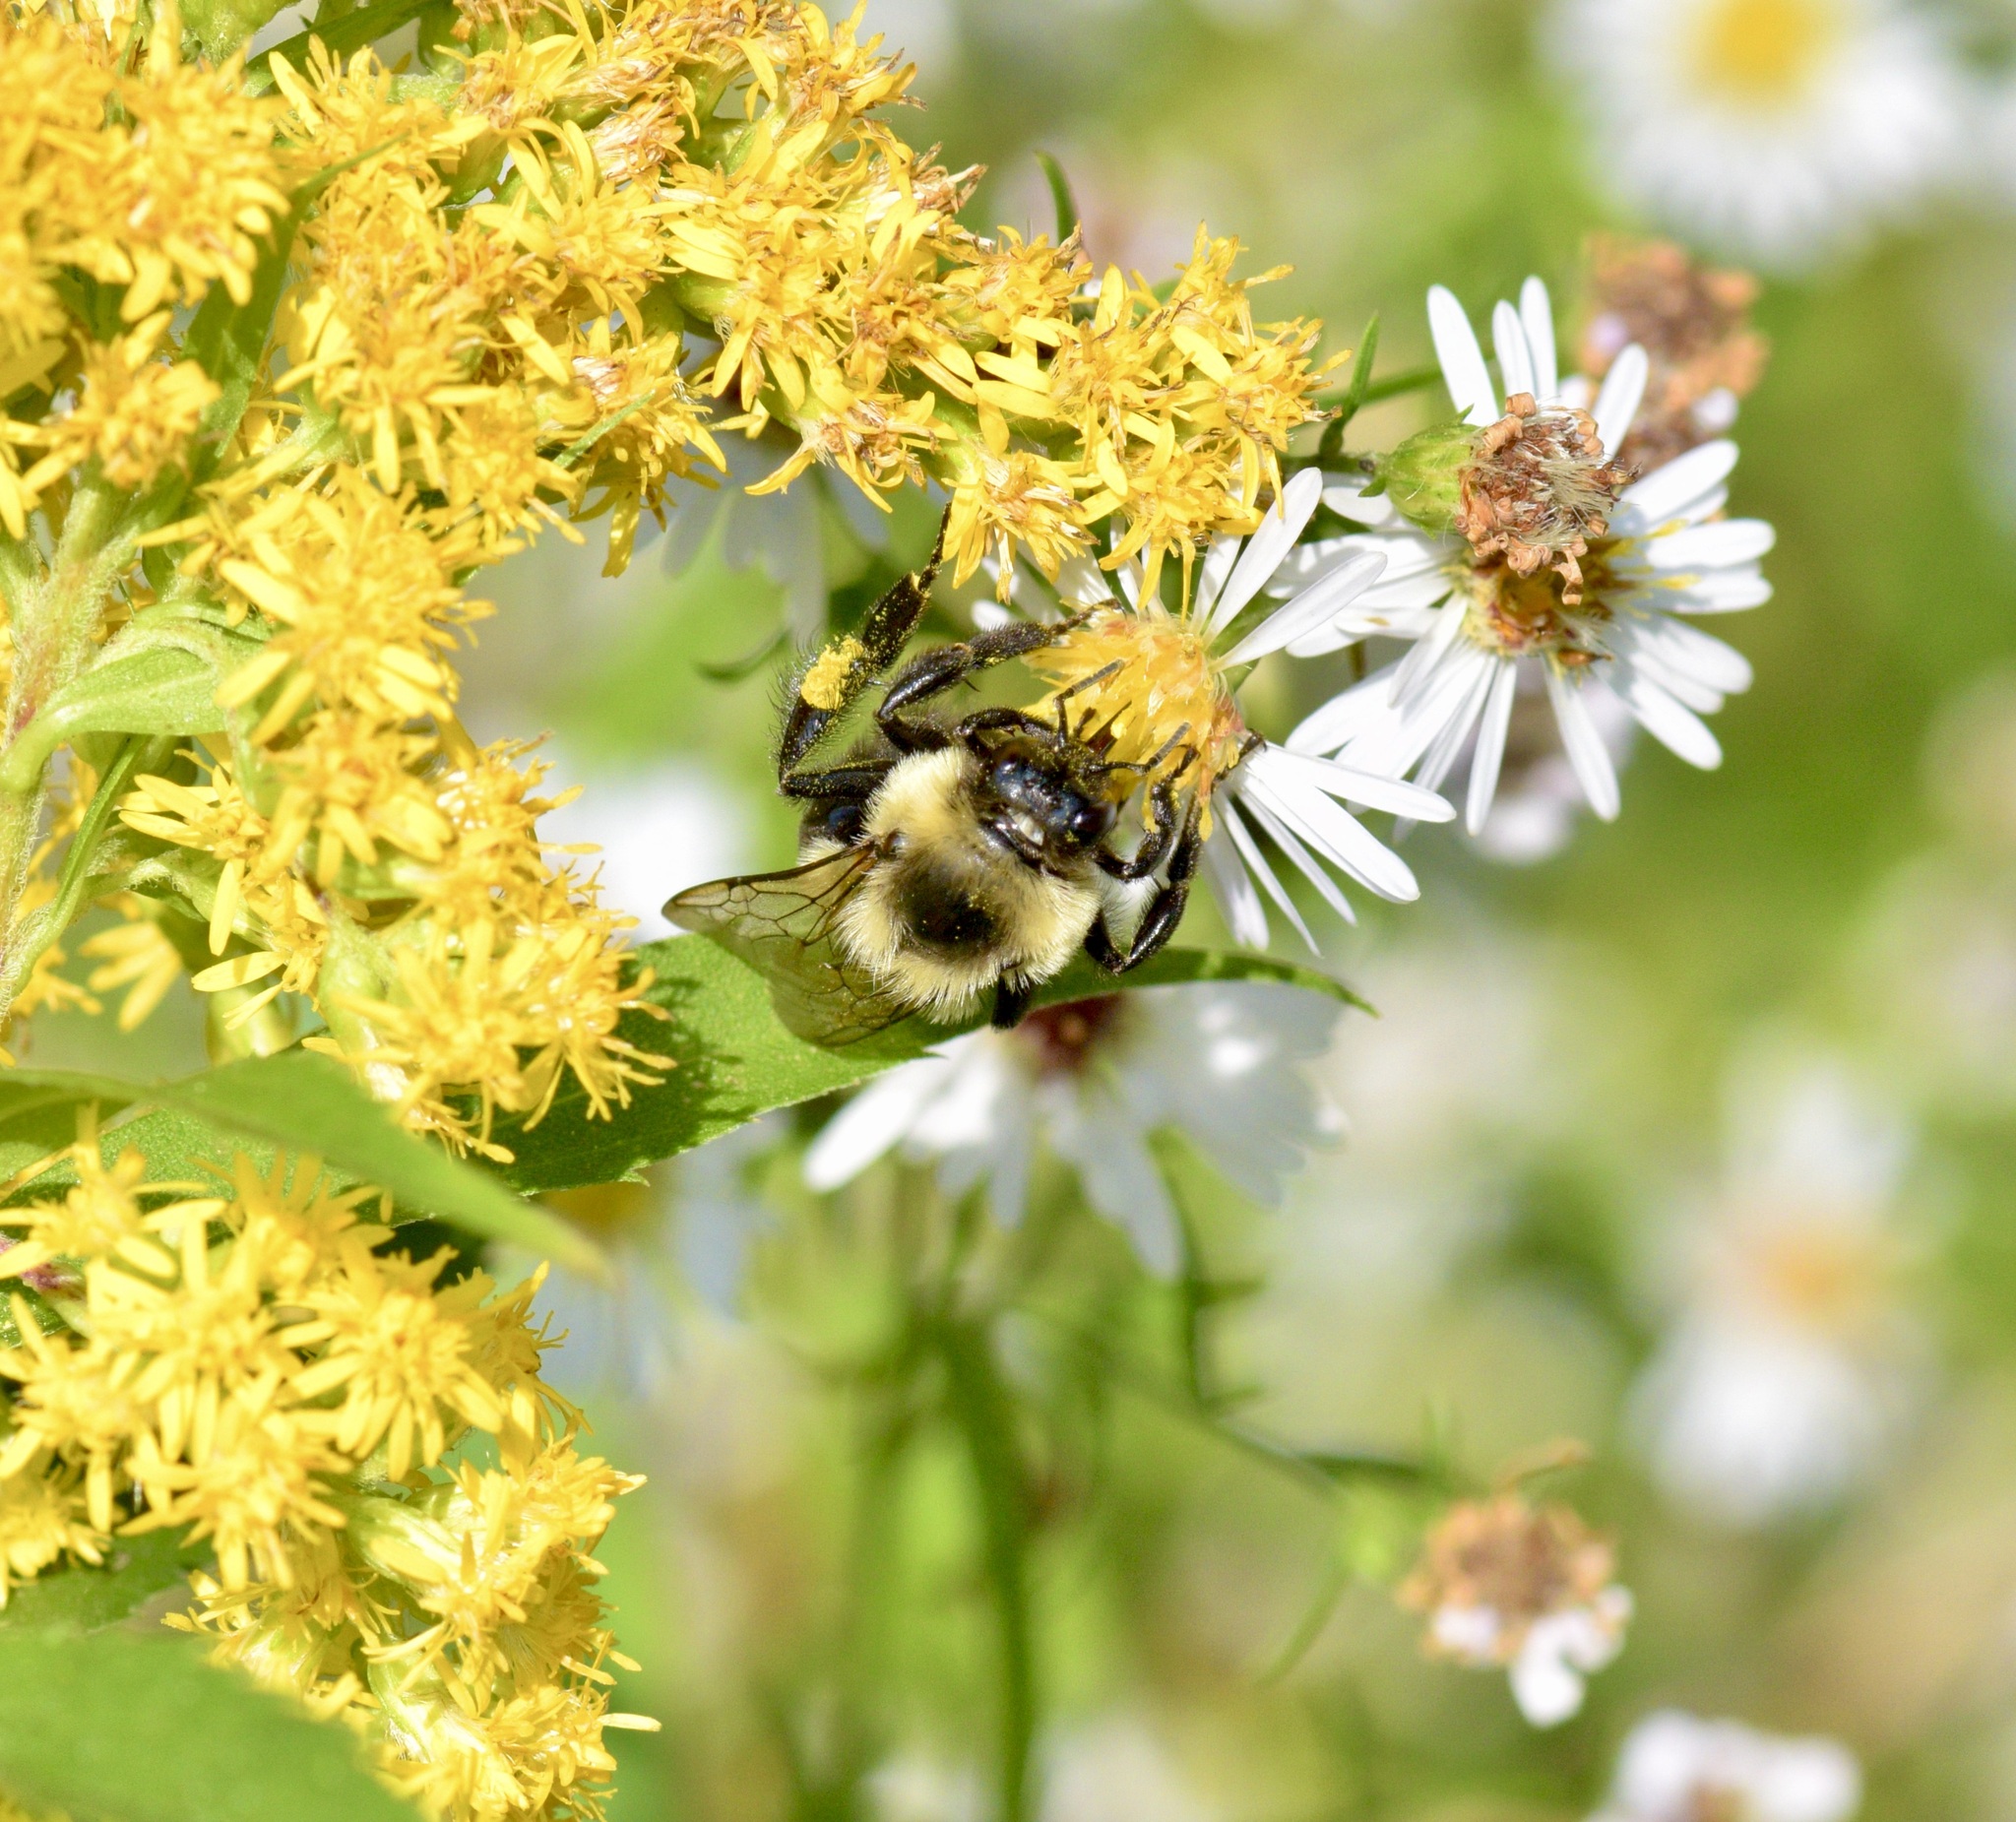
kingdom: Animalia
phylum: Arthropoda
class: Insecta
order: Hymenoptera
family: Apidae
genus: Bombus
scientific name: Bombus impatiens
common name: Common eastern bumble bee
